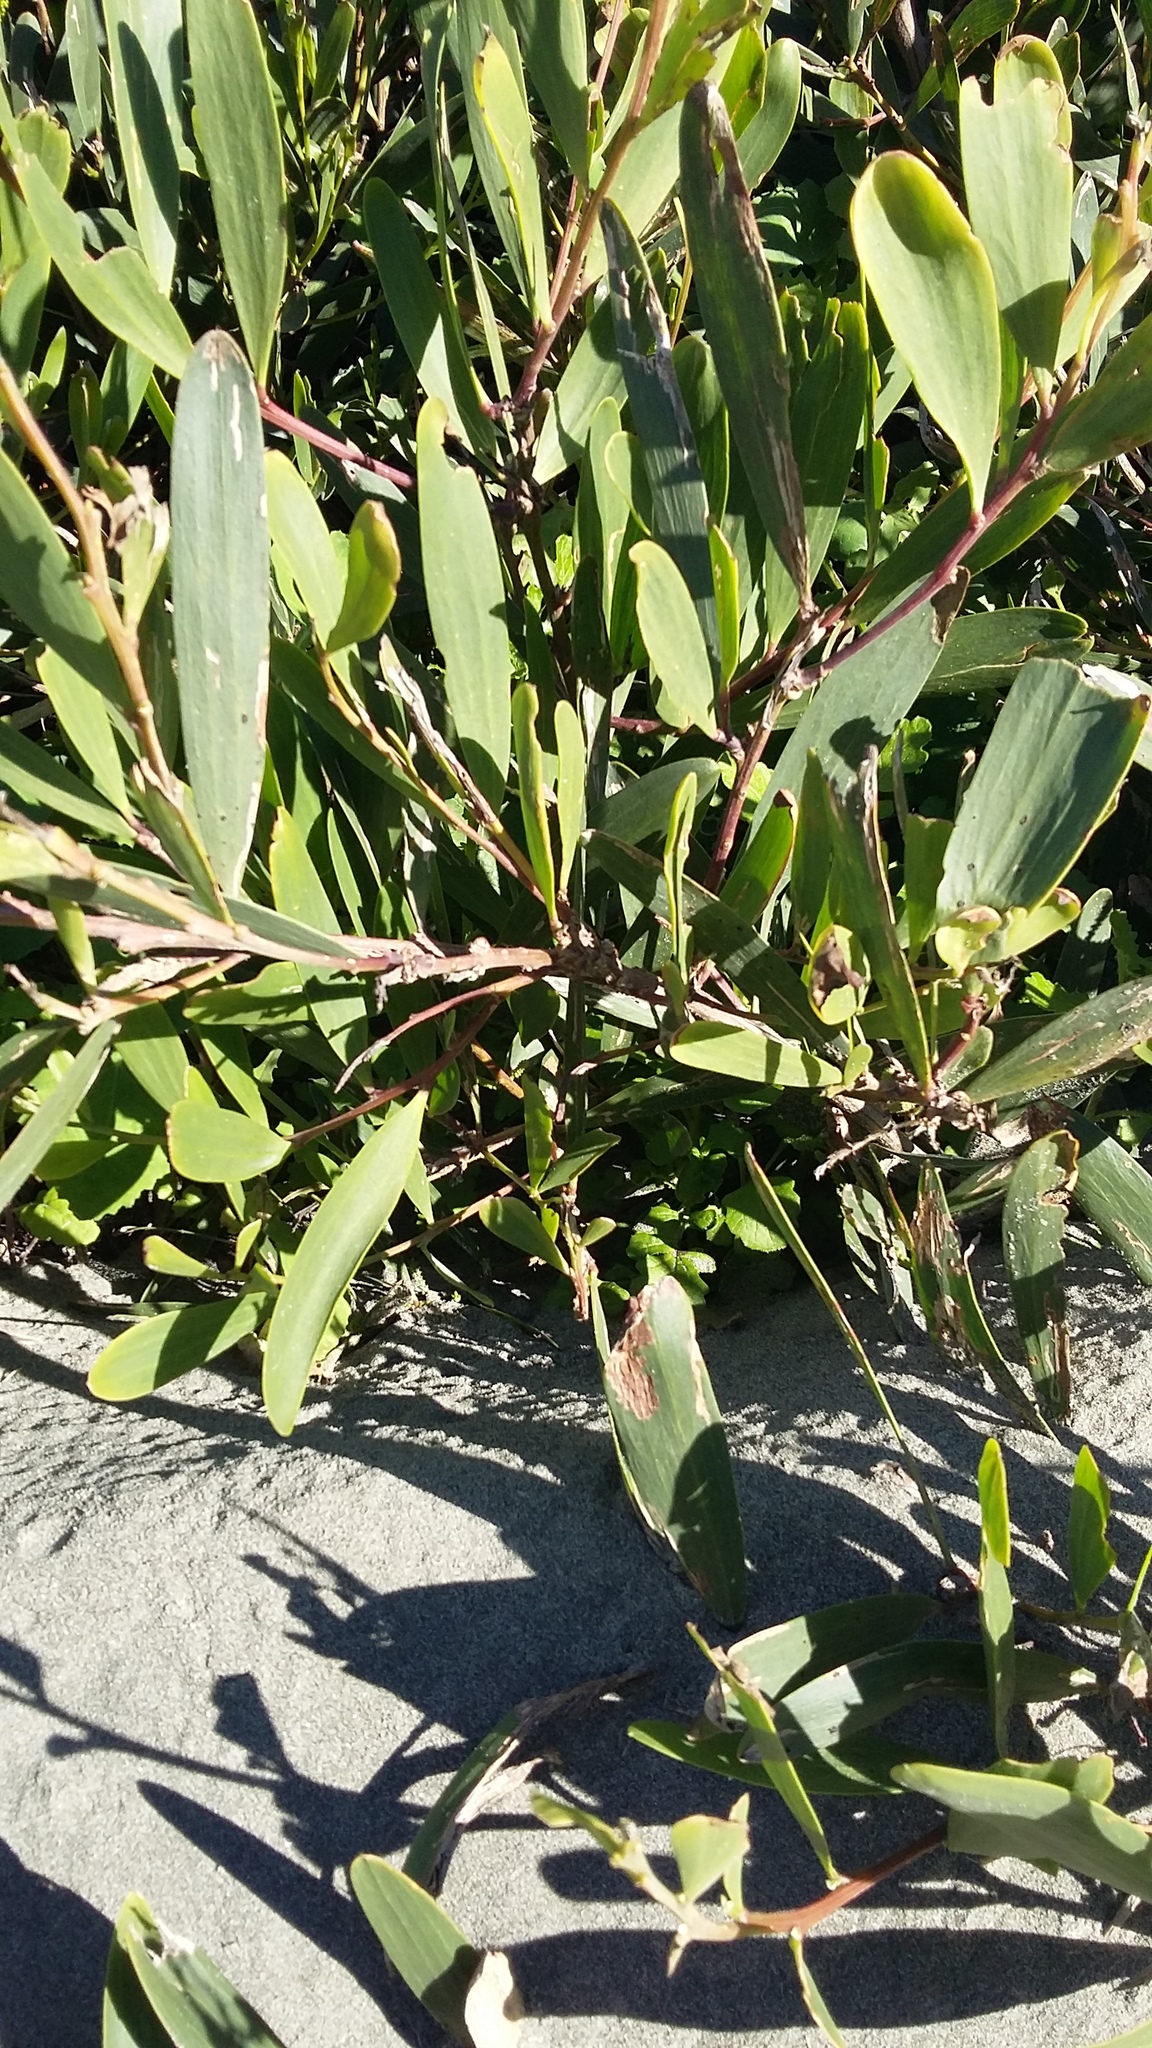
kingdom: Plantae
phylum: Tracheophyta
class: Magnoliopsida
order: Fabales
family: Fabaceae
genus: Acacia
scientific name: Acacia longifolia
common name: Sydney golden wattle
